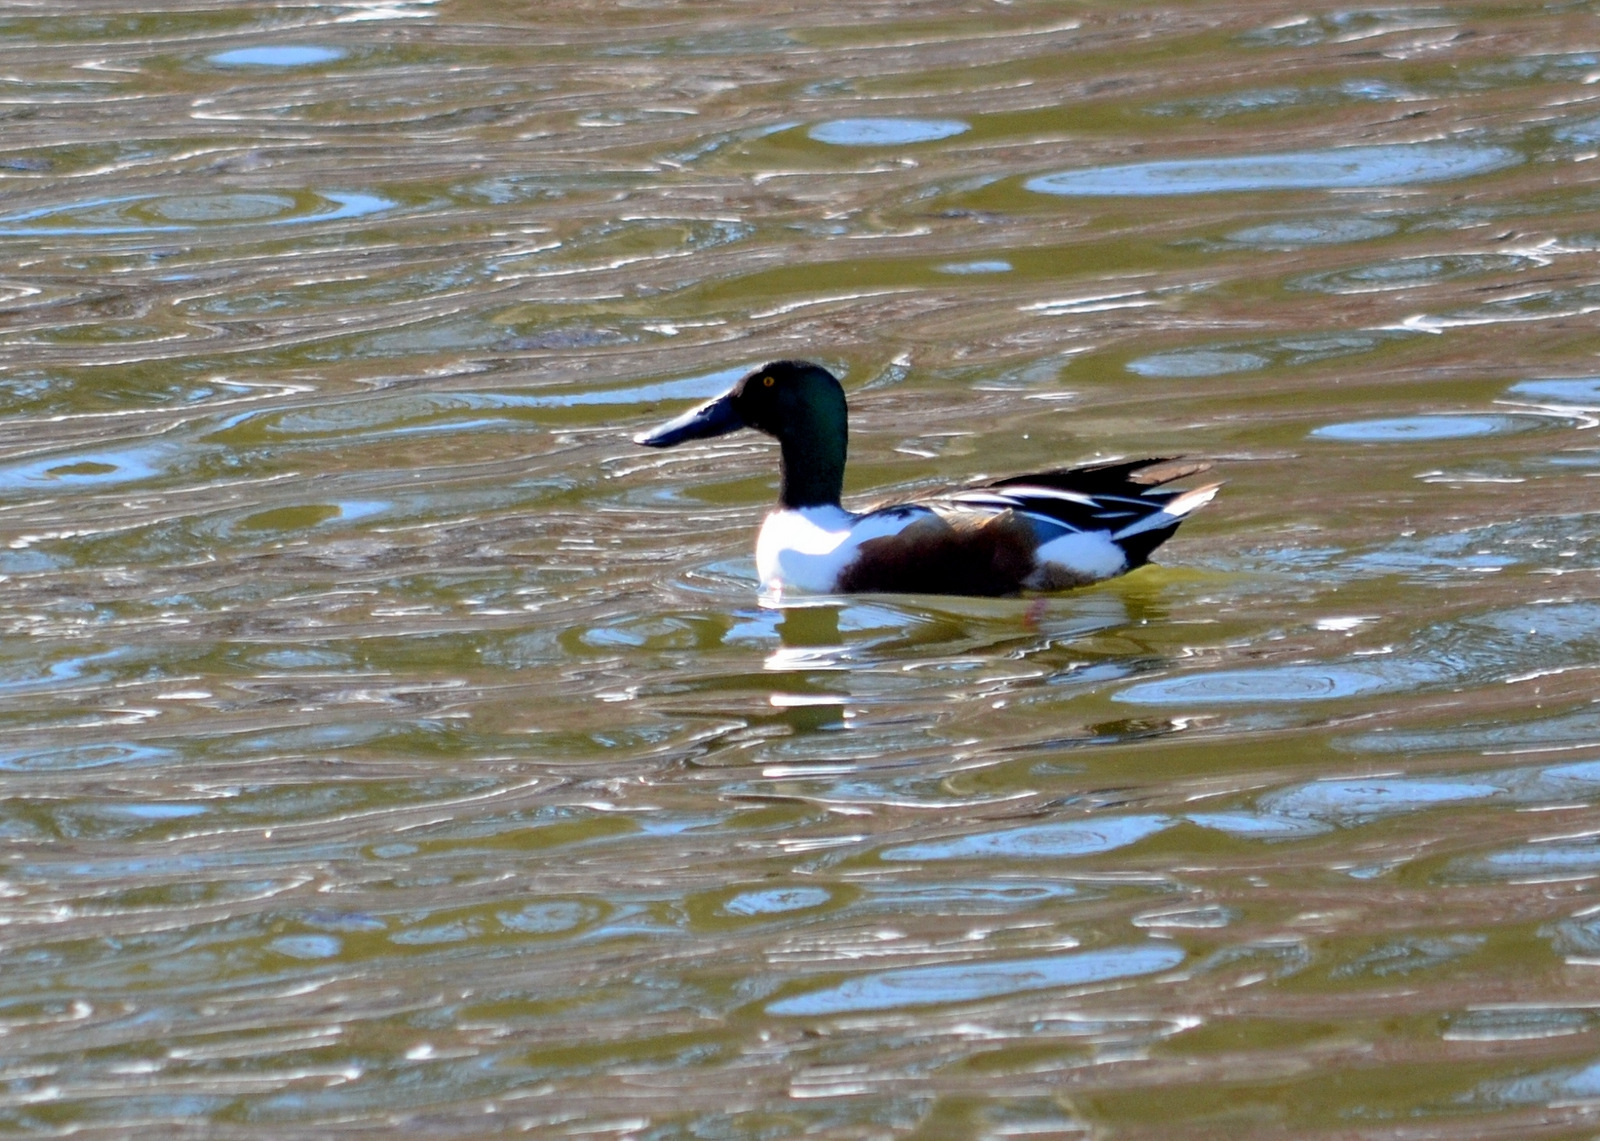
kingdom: Animalia
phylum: Chordata
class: Aves
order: Anseriformes
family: Anatidae
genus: Spatula
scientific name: Spatula clypeata
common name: Northern shoveler
